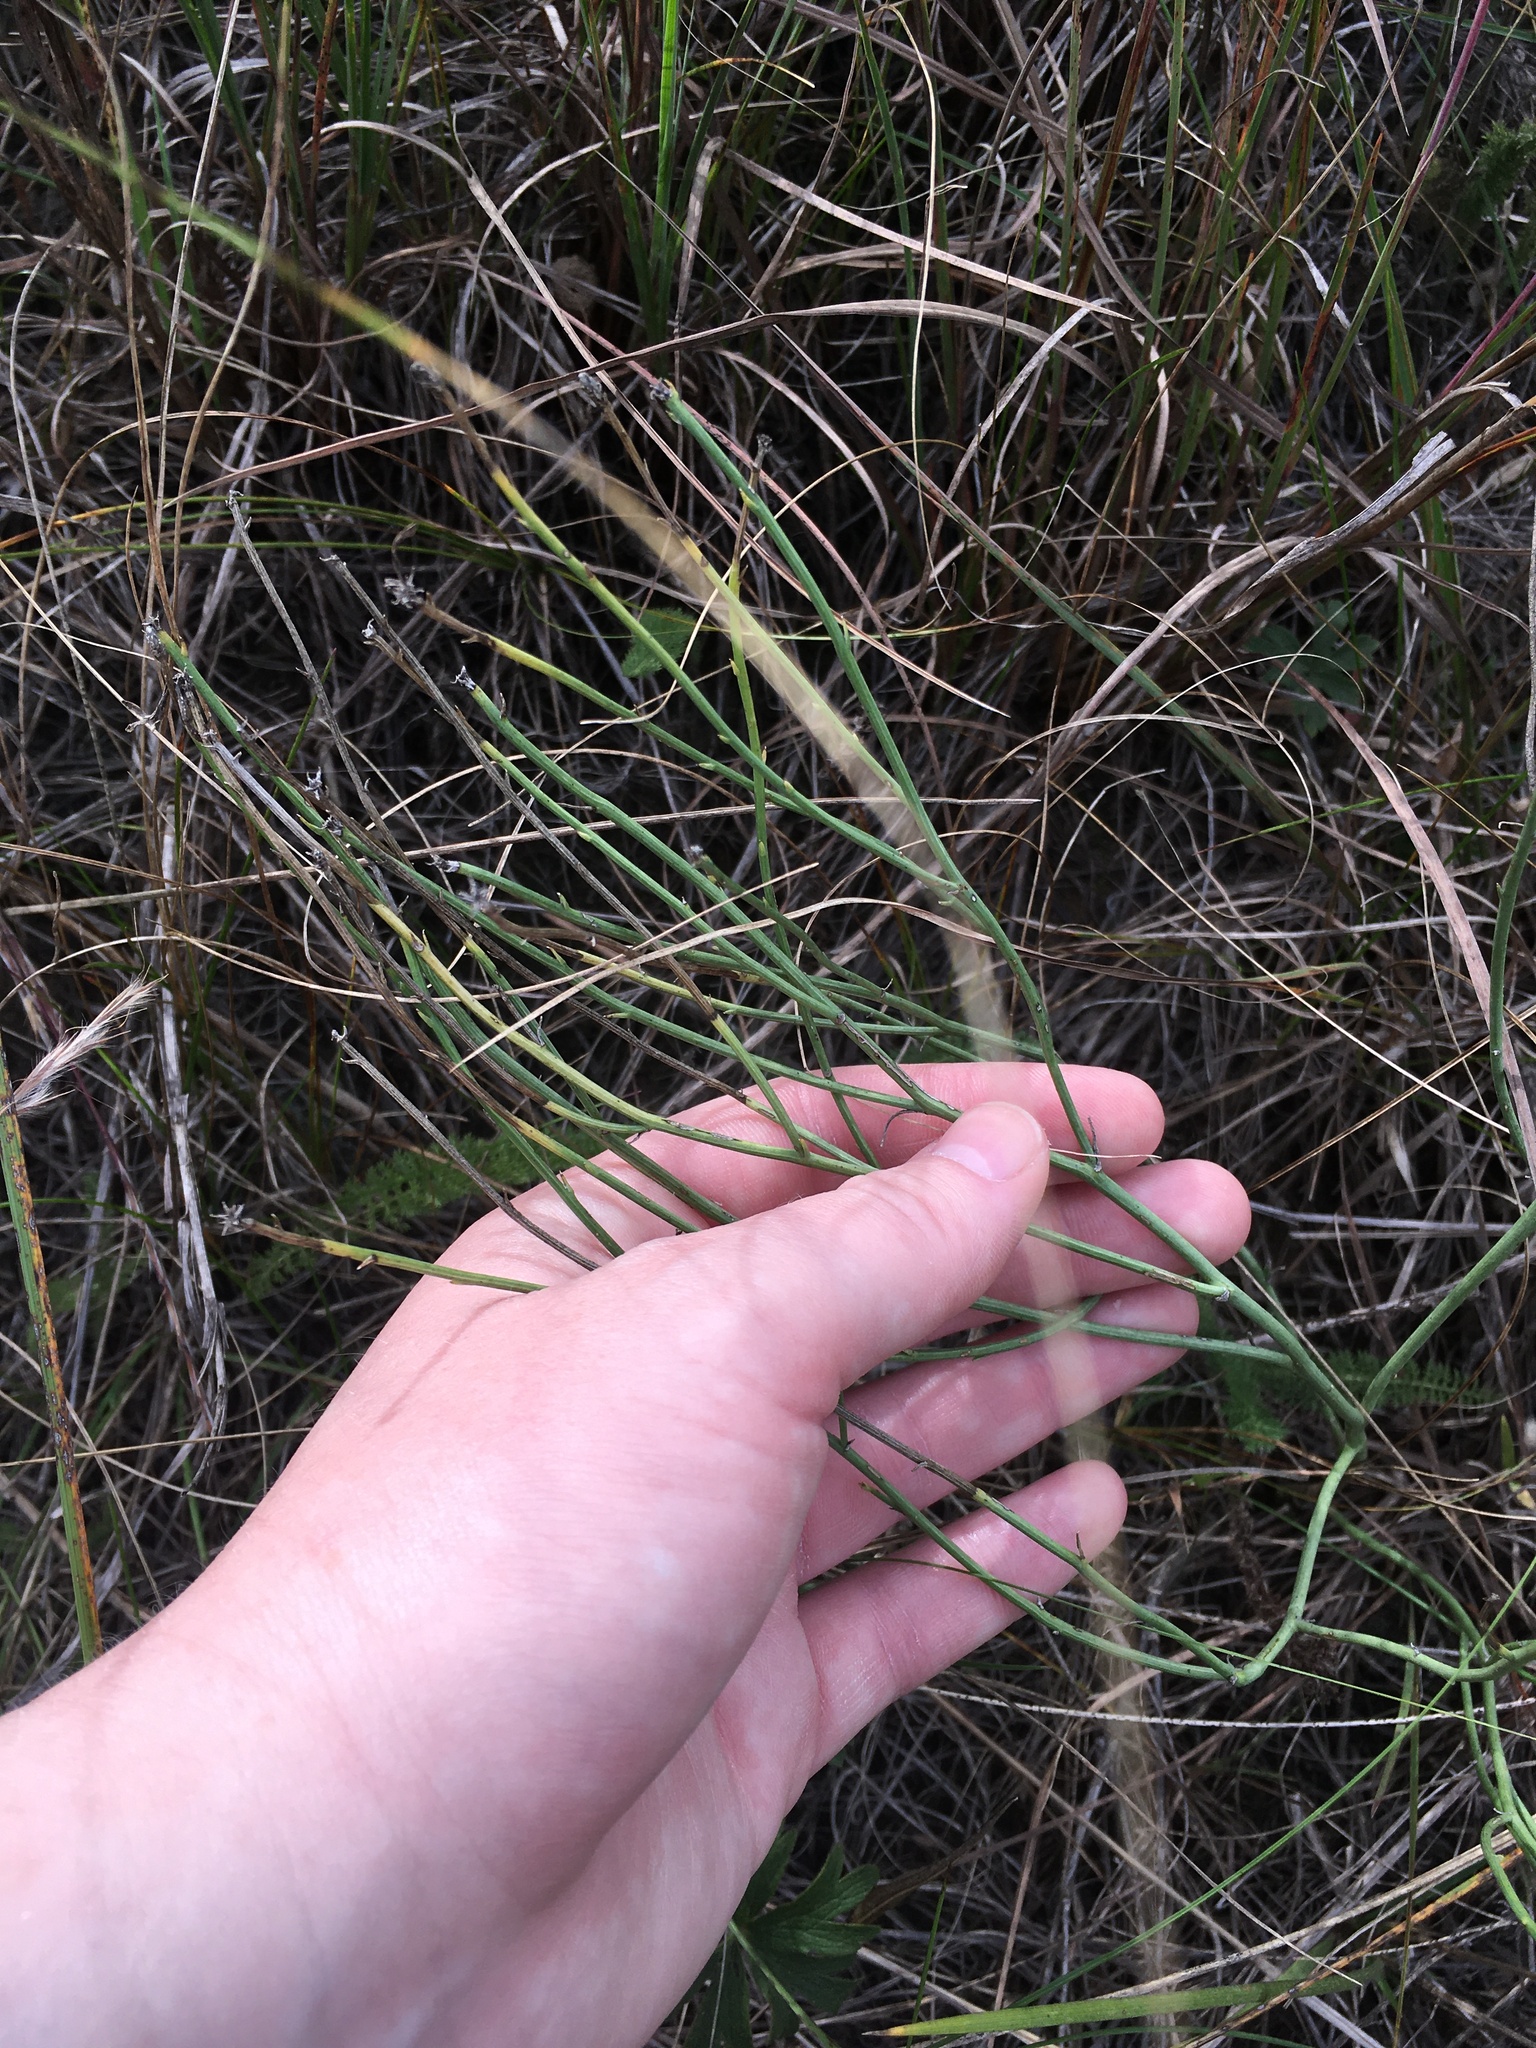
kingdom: Plantae
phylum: Tracheophyta
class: Magnoliopsida
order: Asterales
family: Asteraceae
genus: Lygodesmia
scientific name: Lygodesmia juncea
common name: Common skeletonweed
